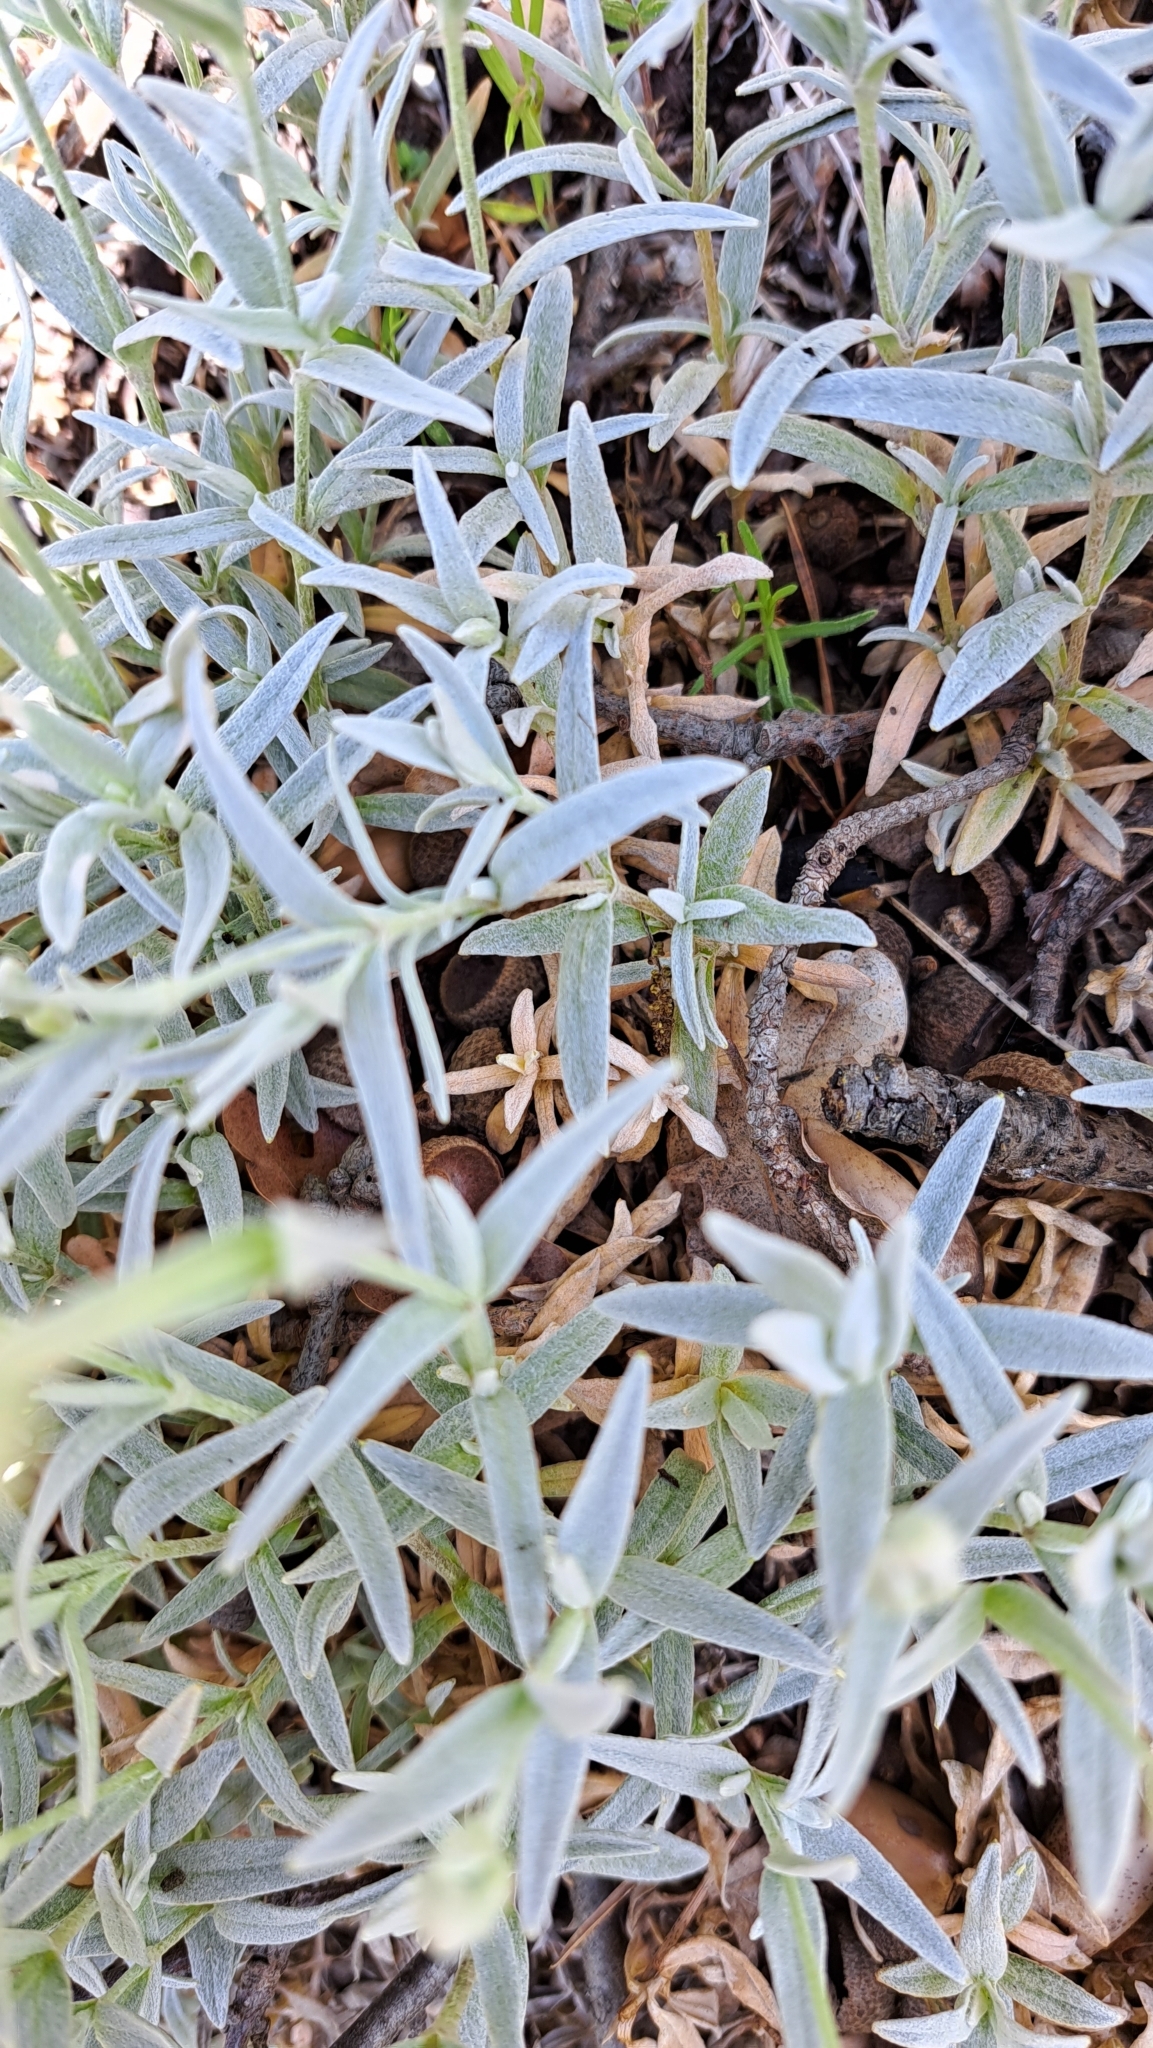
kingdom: Plantae
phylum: Tracheophyta
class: Magnoliopsida
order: Caryophyllales
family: Caryophyllaceae
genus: Cerastium
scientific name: Cerastium tomentosum
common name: Snow-in-summer
